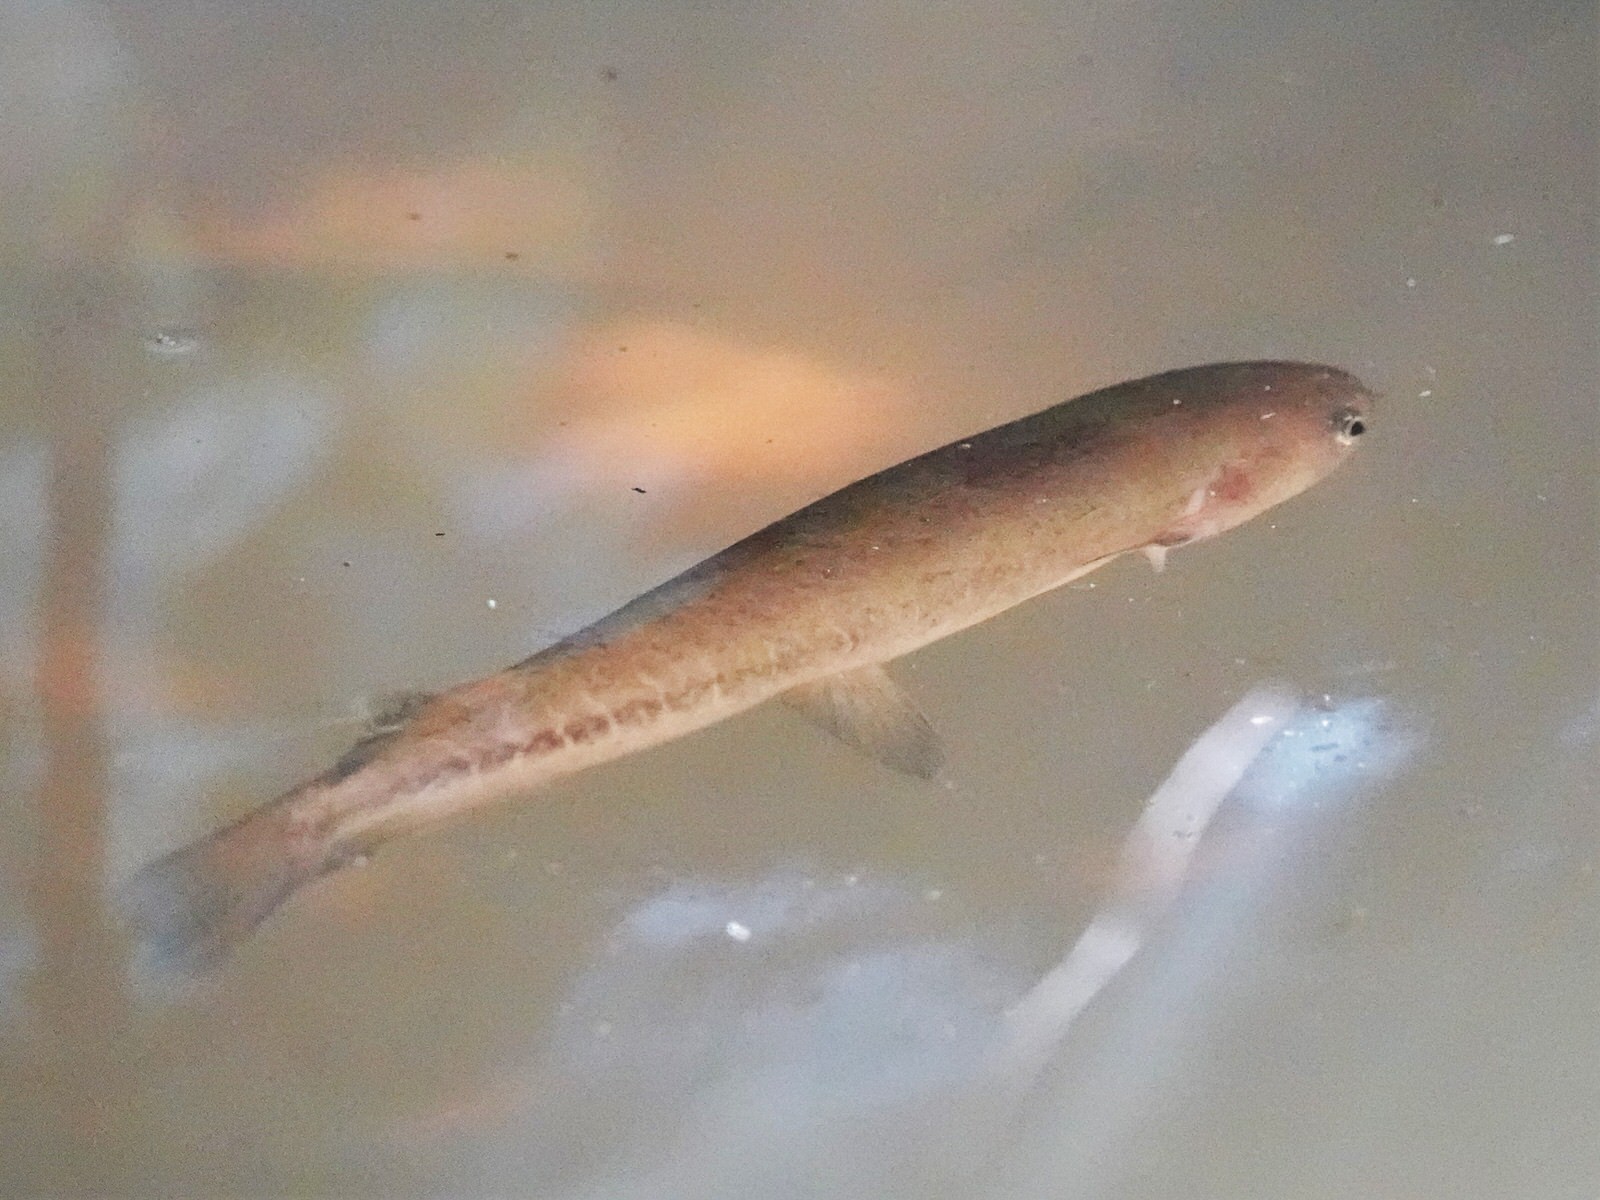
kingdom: Animalia
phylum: Chordata
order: Osmeriformes
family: Galaxiidae
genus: Galaxias
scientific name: Galaxias fasciatus
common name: Banded kokopu
